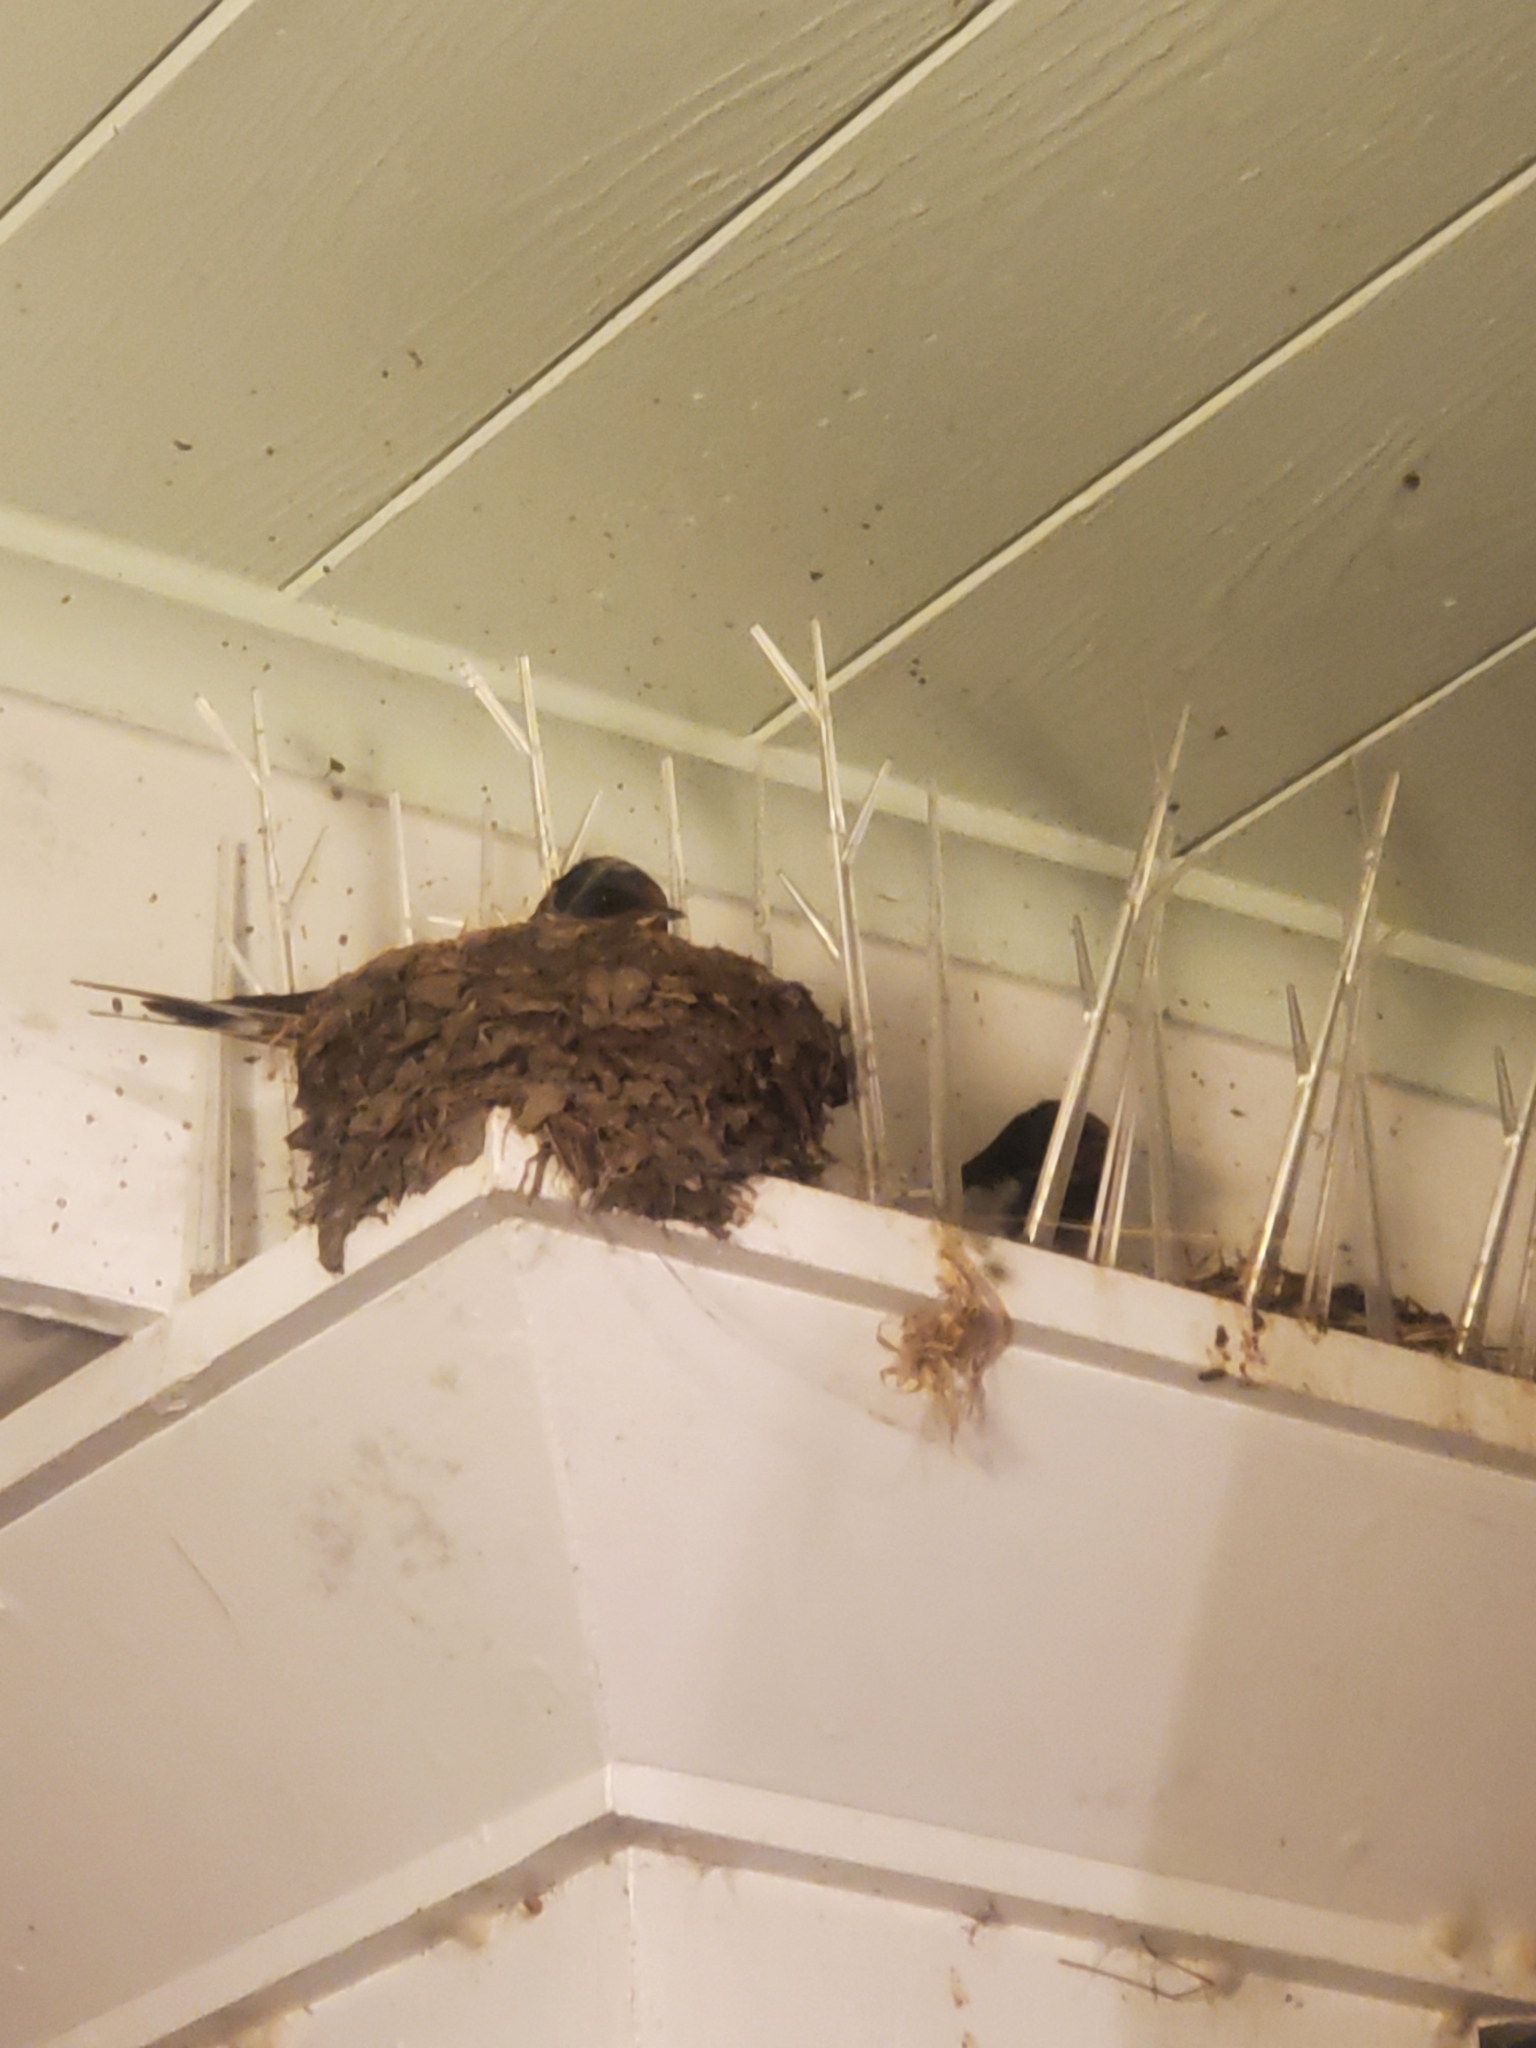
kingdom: Animalia
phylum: Chordata
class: Aves
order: Passeriformes
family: Hirundinidae
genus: Hirundo
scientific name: Hirundo rustica
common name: Barn swallow
